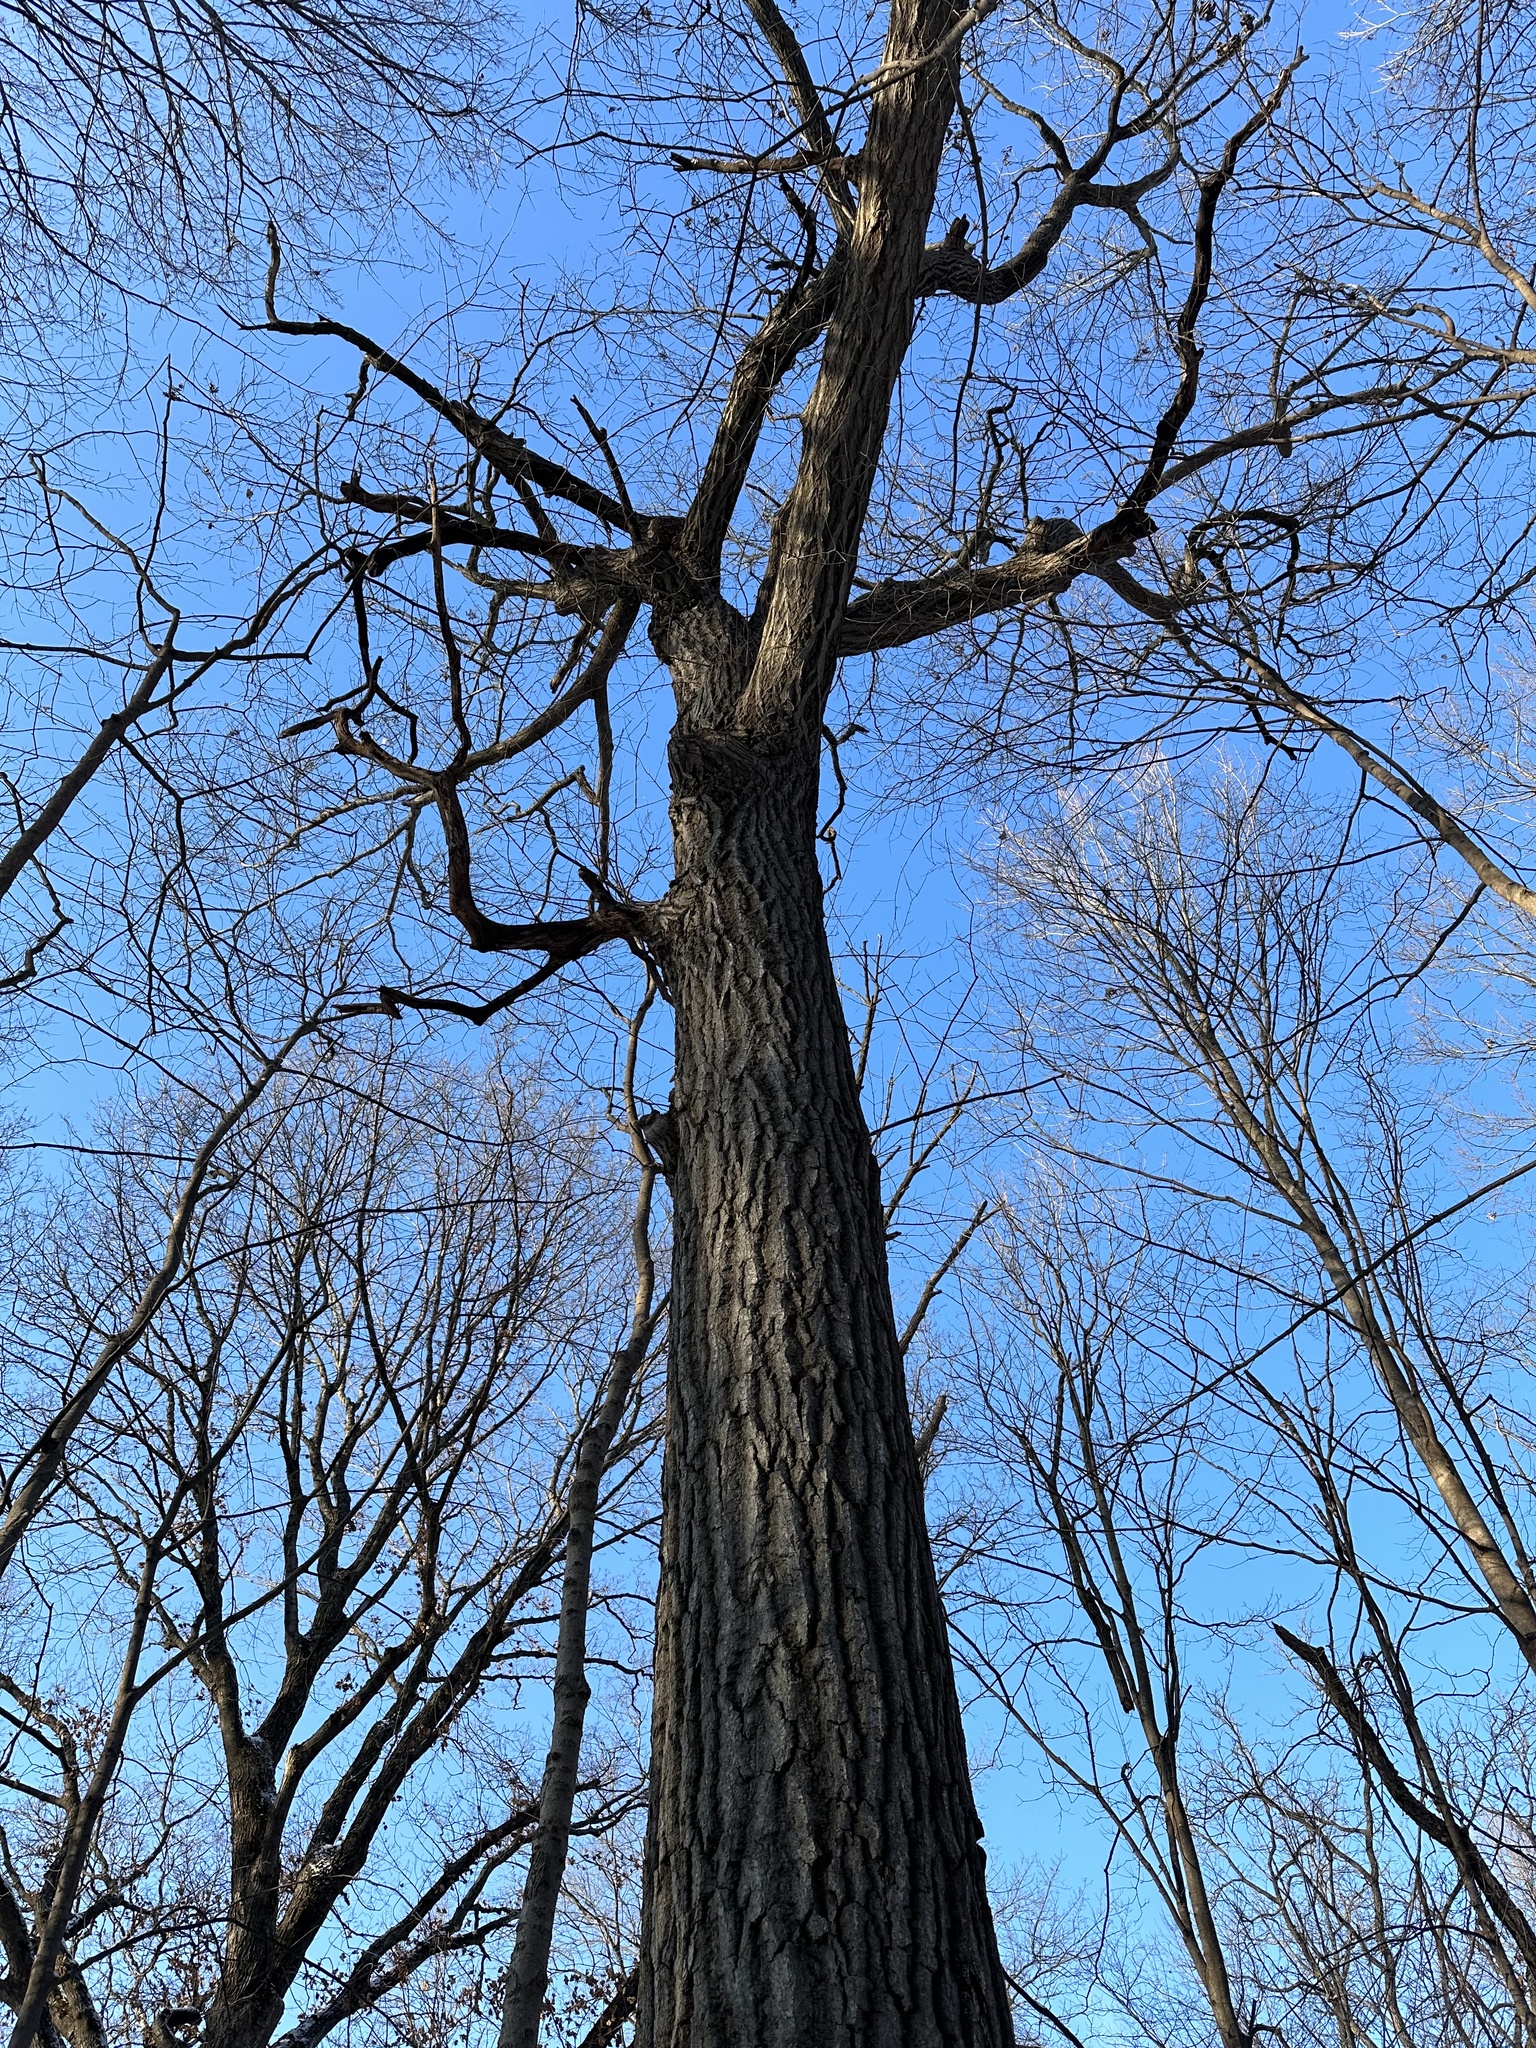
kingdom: Plantae
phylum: Tracheophyta
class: Magnoliopsida
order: Fagales
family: Fagaceae
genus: Quercus
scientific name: Quercus rubra
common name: Red oak
